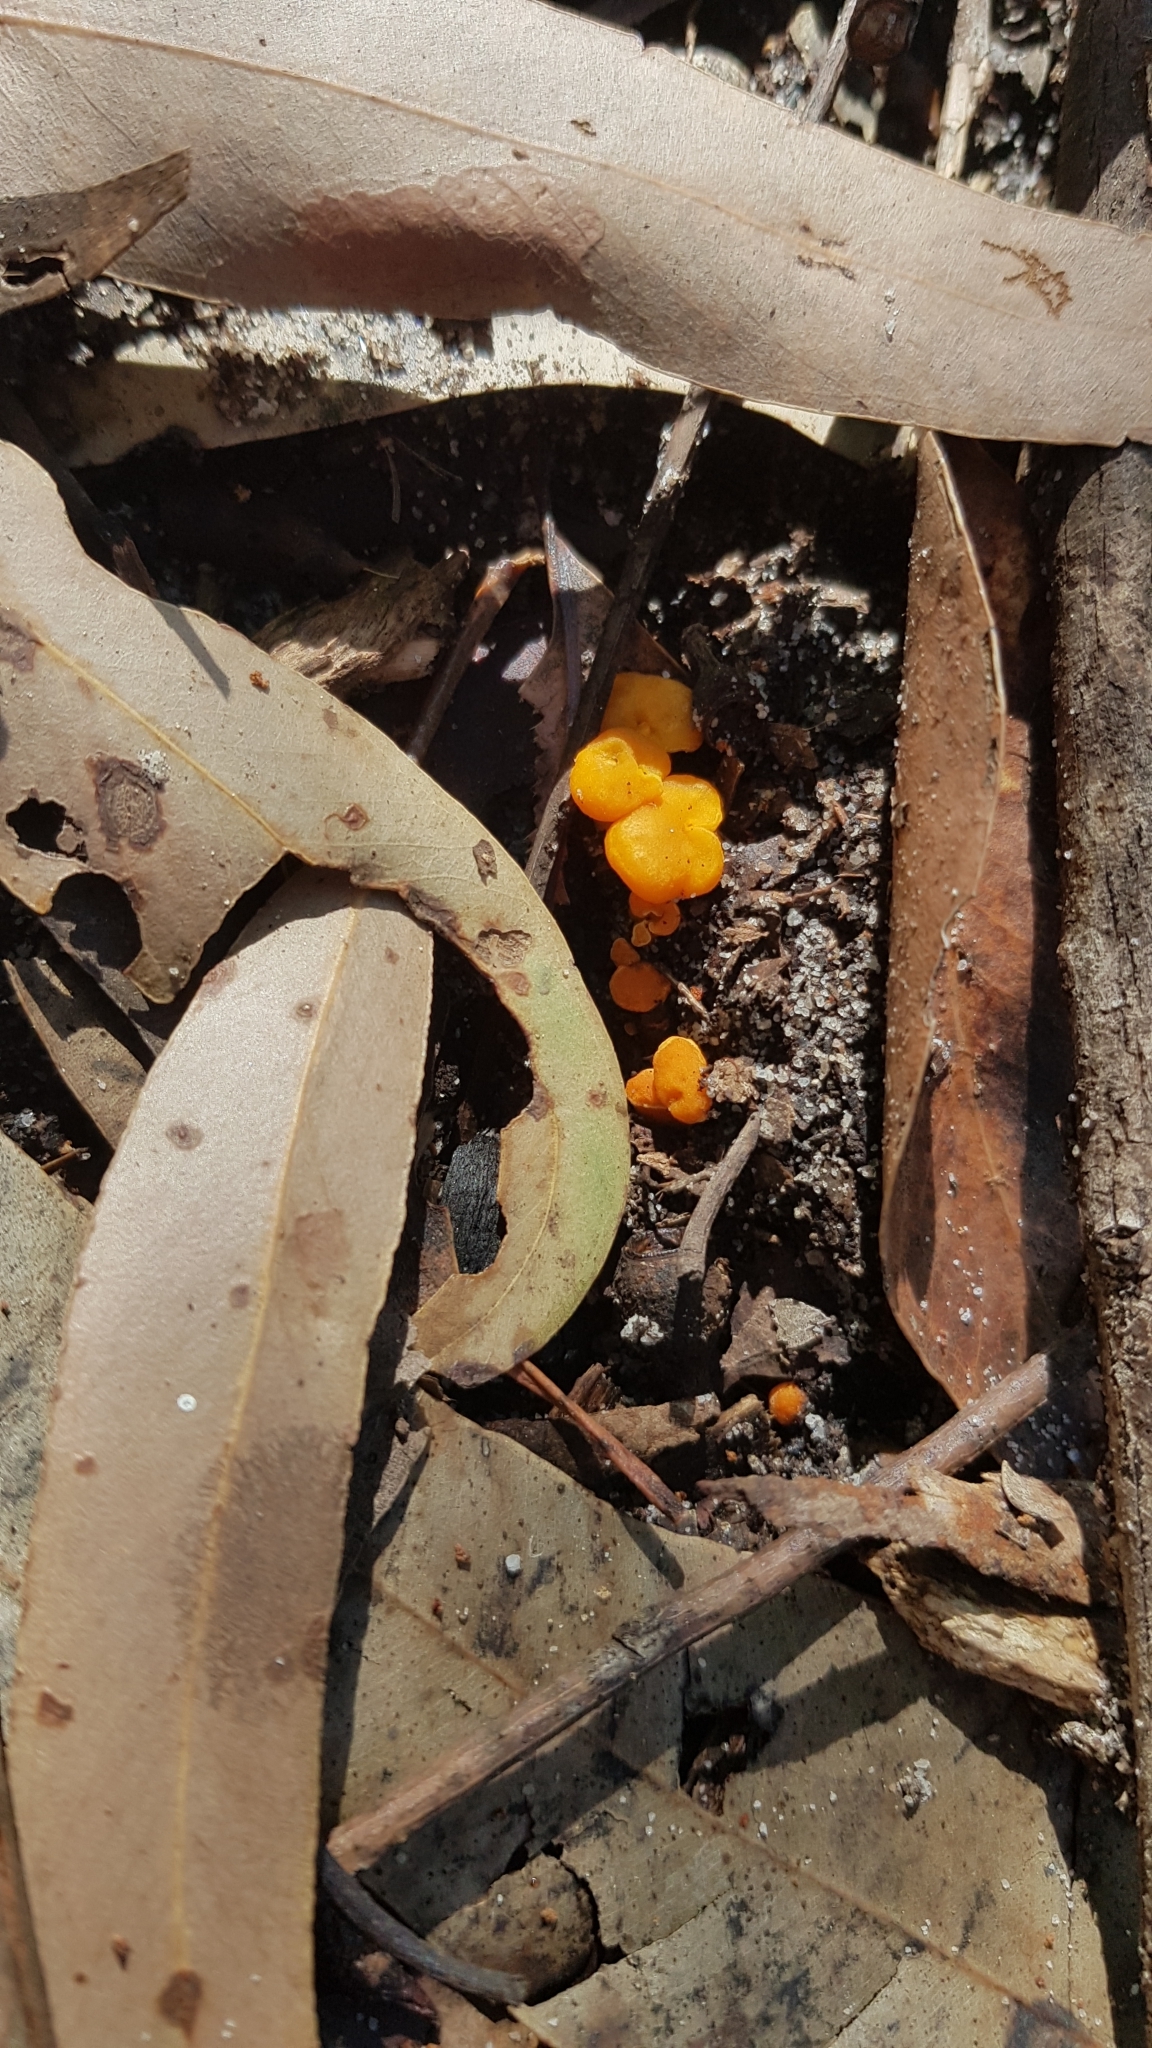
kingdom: Fungi
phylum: Basidiomycota
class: Agaricomycetes
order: Cantharellales
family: Hydnaceae
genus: Cantharellus
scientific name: Cantharellus
